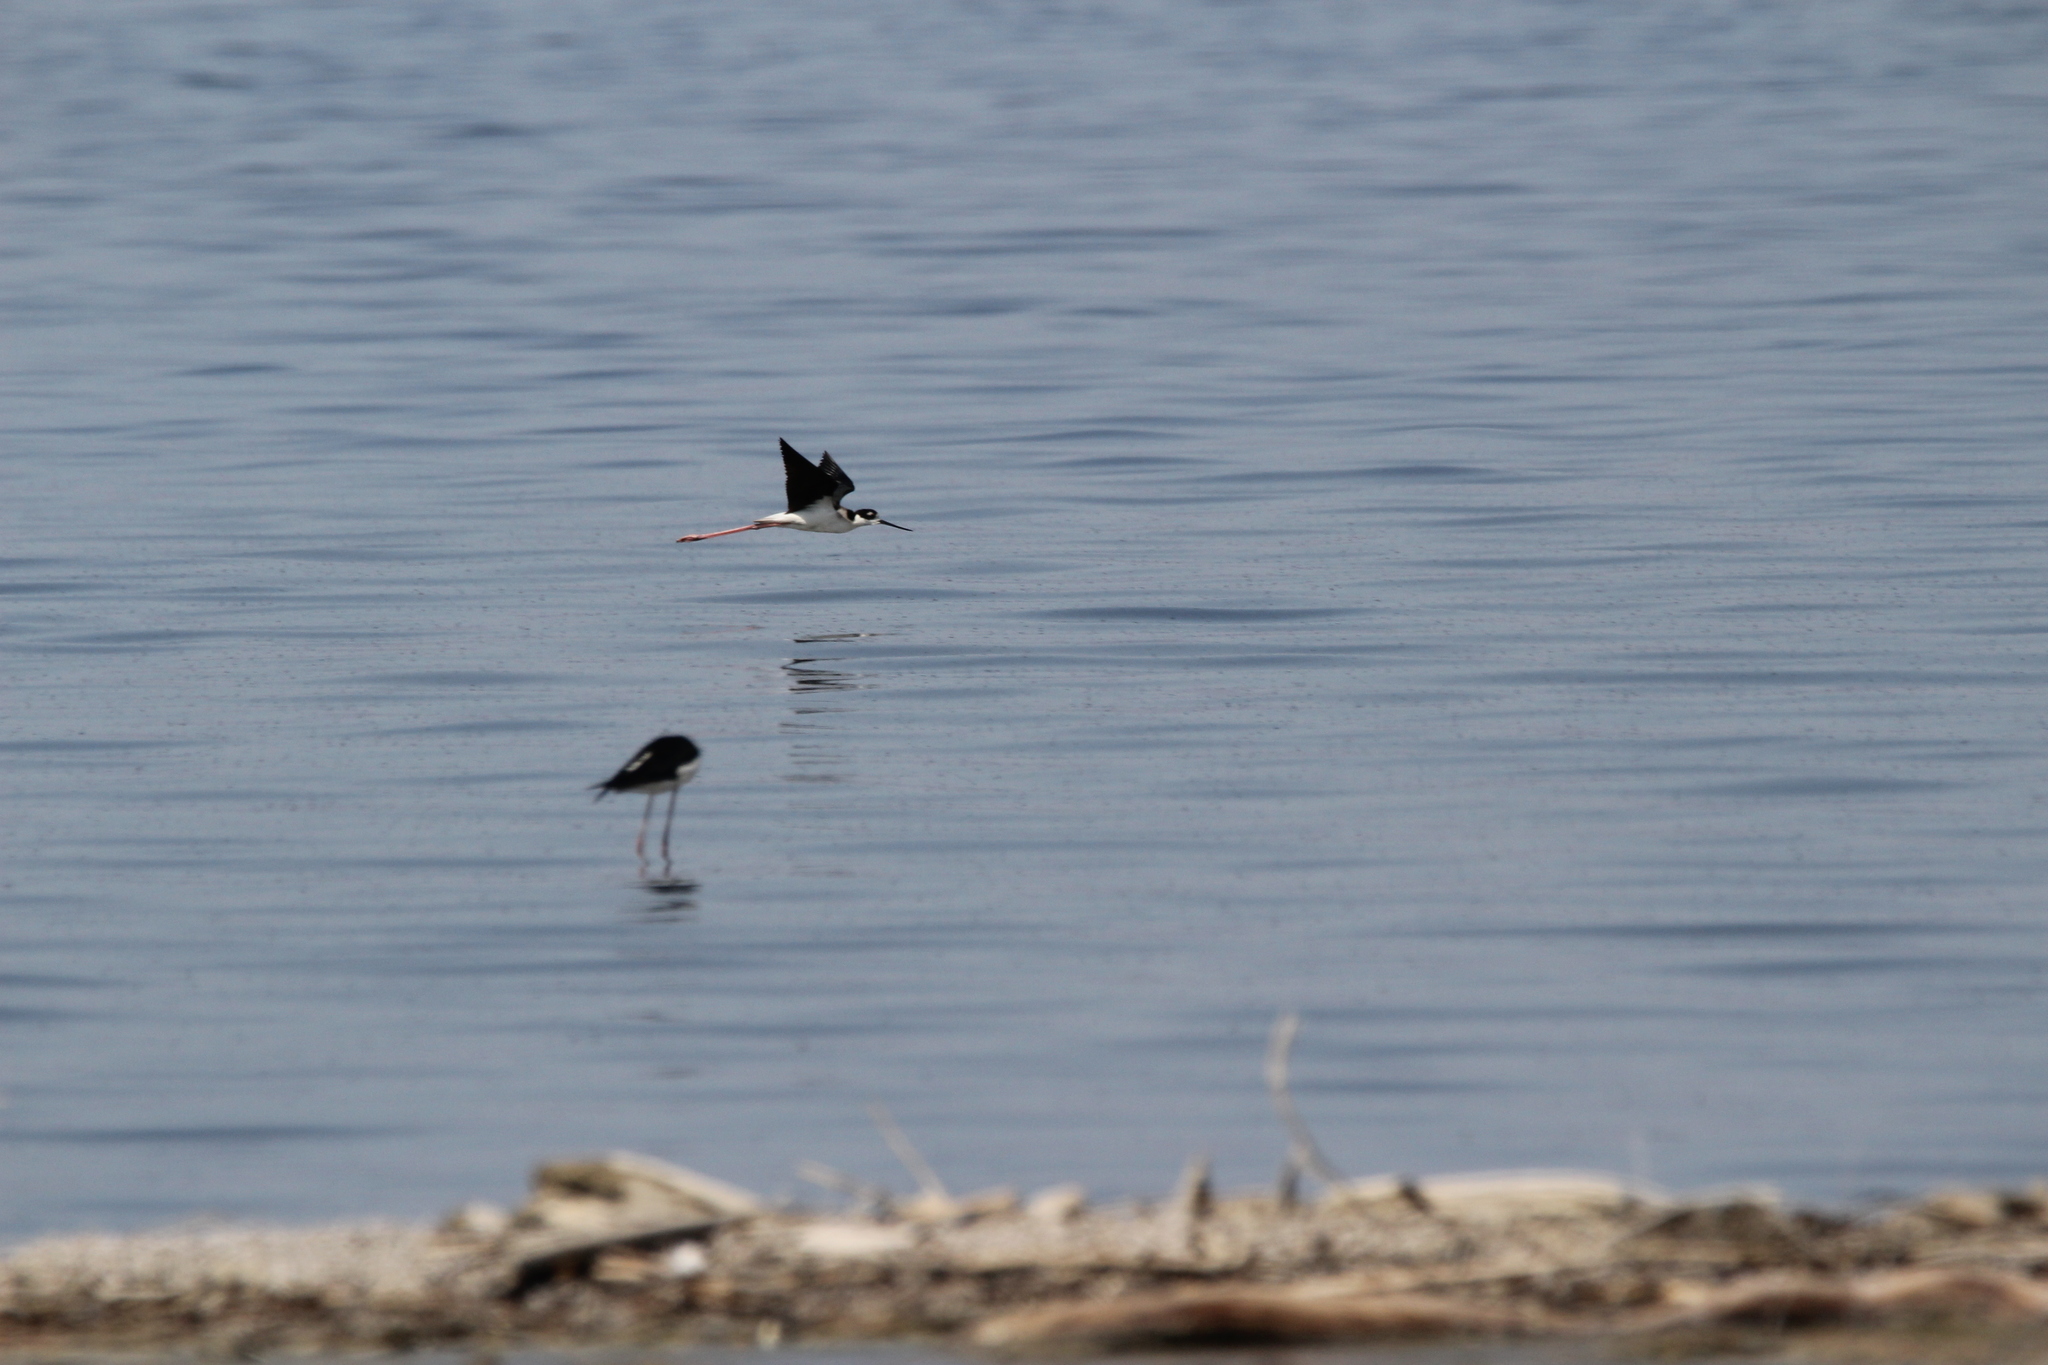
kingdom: Animalia
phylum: Chordata
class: Aves
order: Charadriiformes
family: Recurvirostridae
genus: Himantopus
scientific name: Himantopus mexicanus
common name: Black-necked stilt
